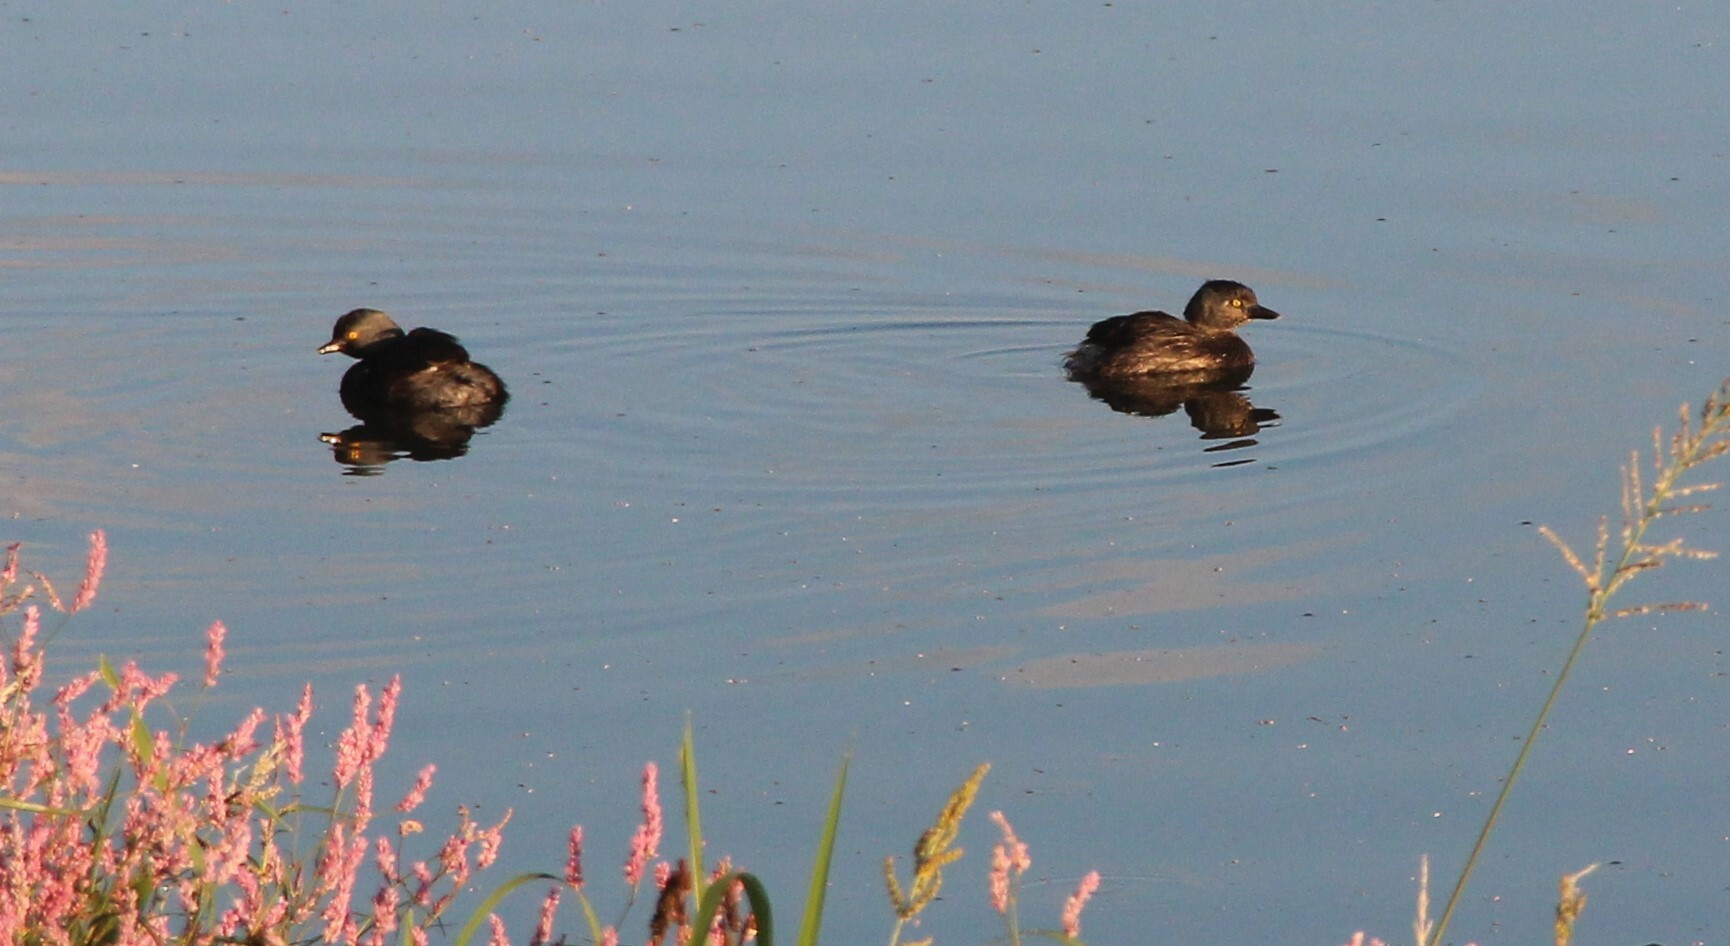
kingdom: Animalia
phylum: Chordata
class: Aves
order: Podicipediformes
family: Podicipedidae
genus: Tachybaptus
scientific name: Tachybaptus dominicus
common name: Least grebe
